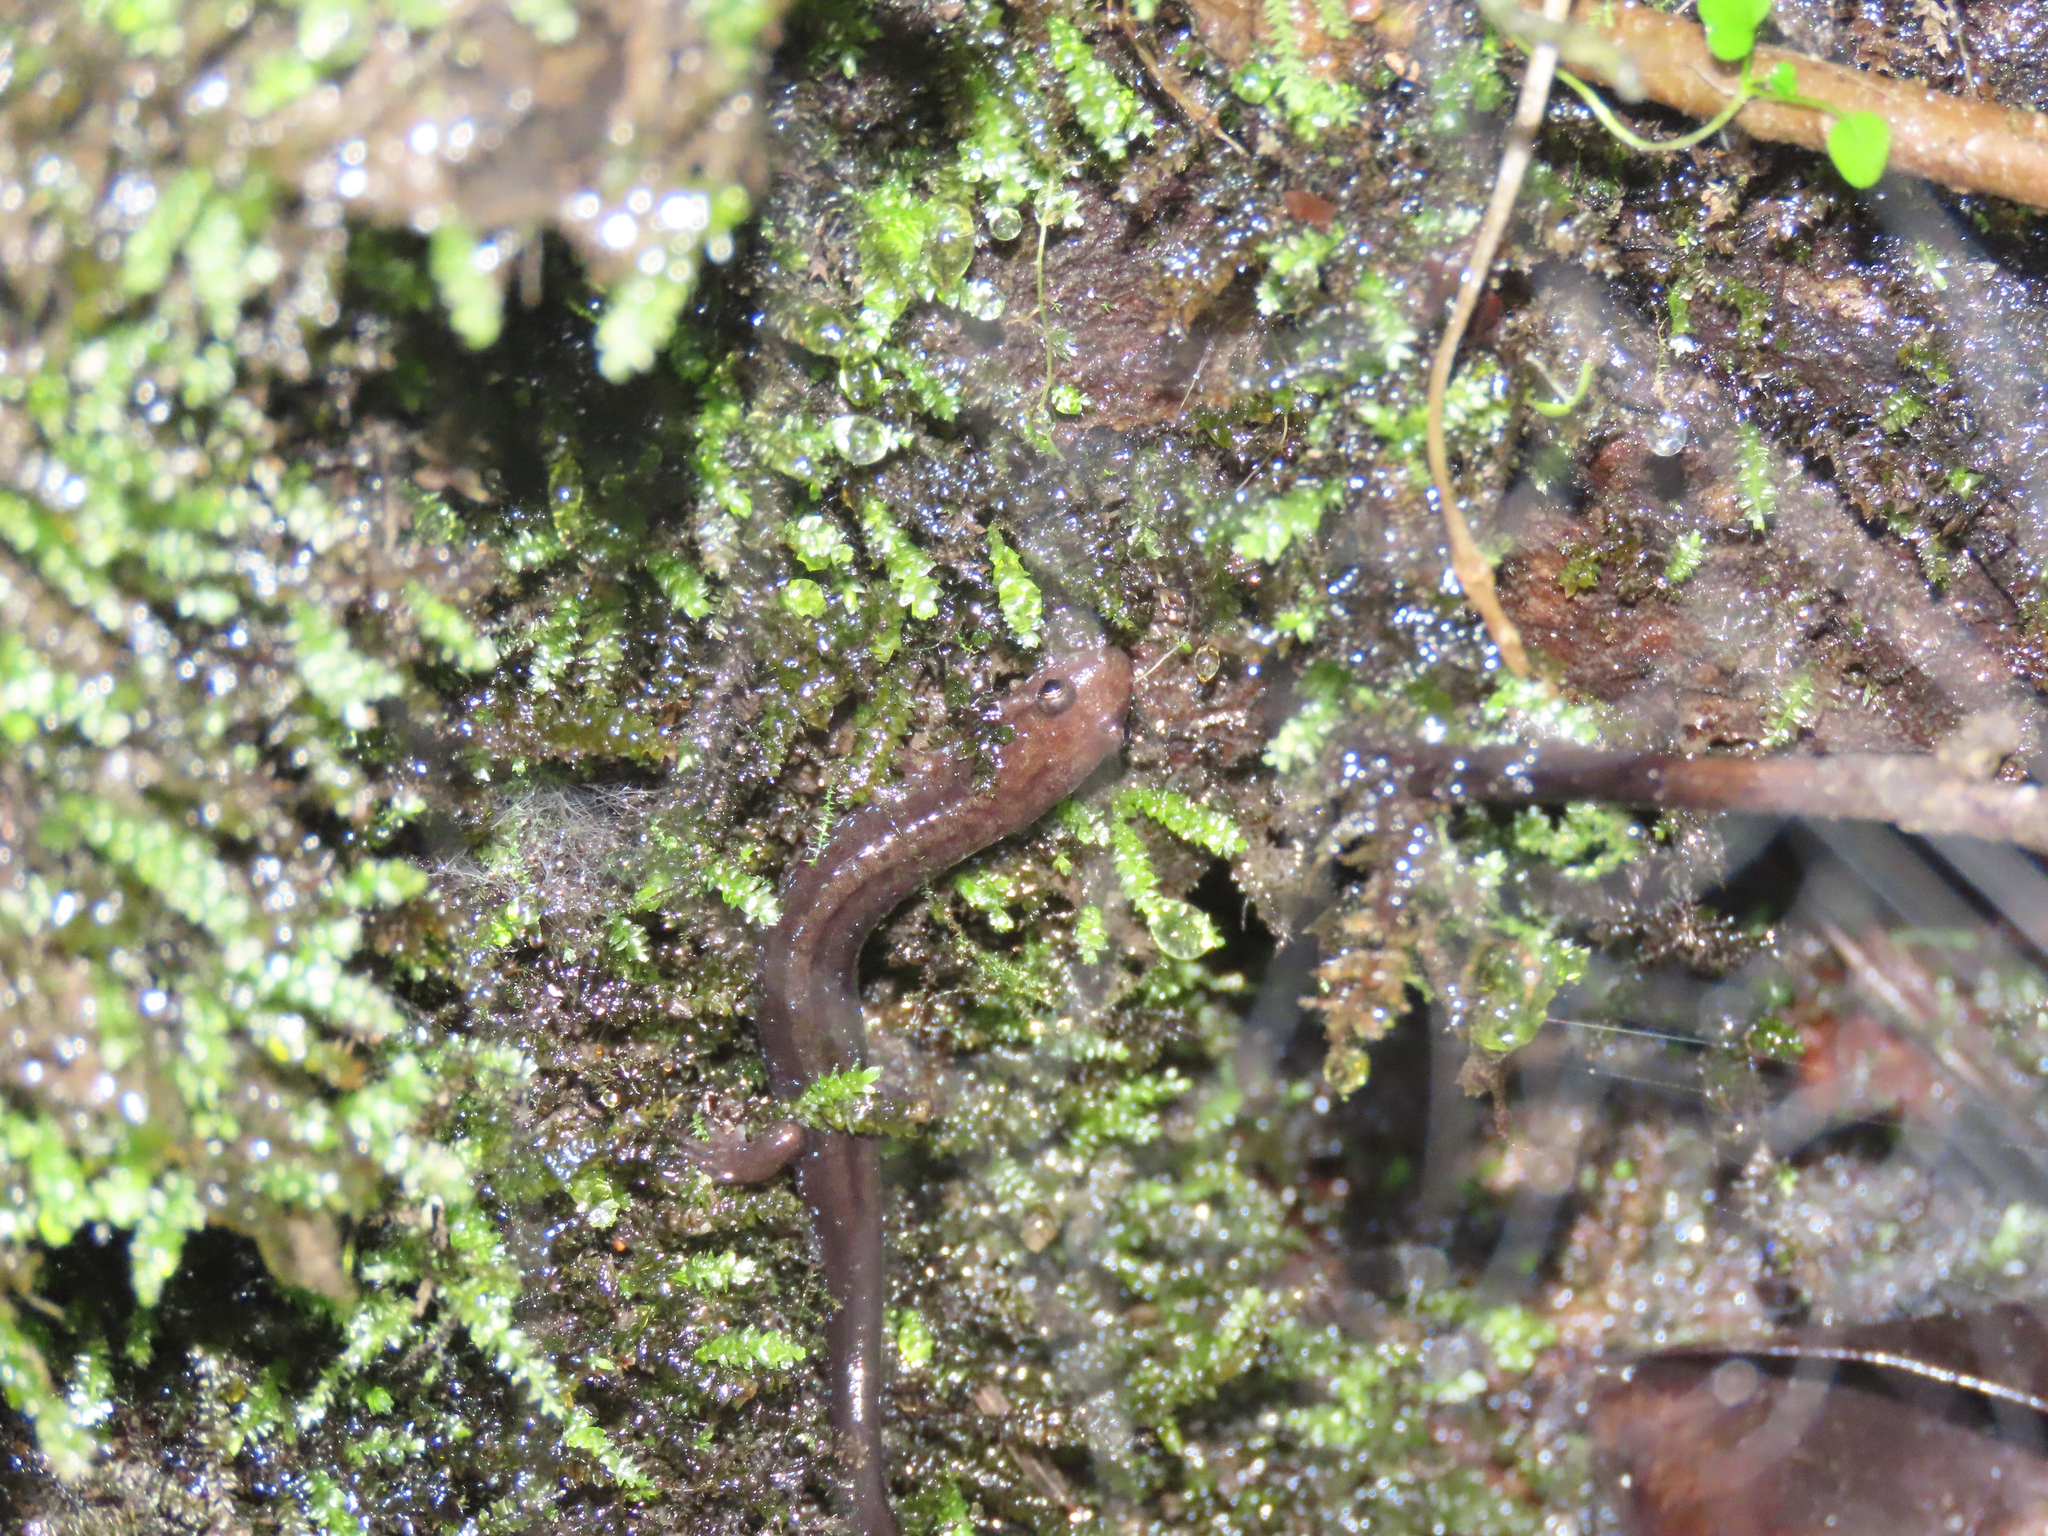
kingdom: Animalia
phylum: Chordata
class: Amphibia
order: Caudata
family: Plethodontidae
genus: Desmognathus
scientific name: Desmognathus ochrophaeus
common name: Allegheny mountain dusky salamander
